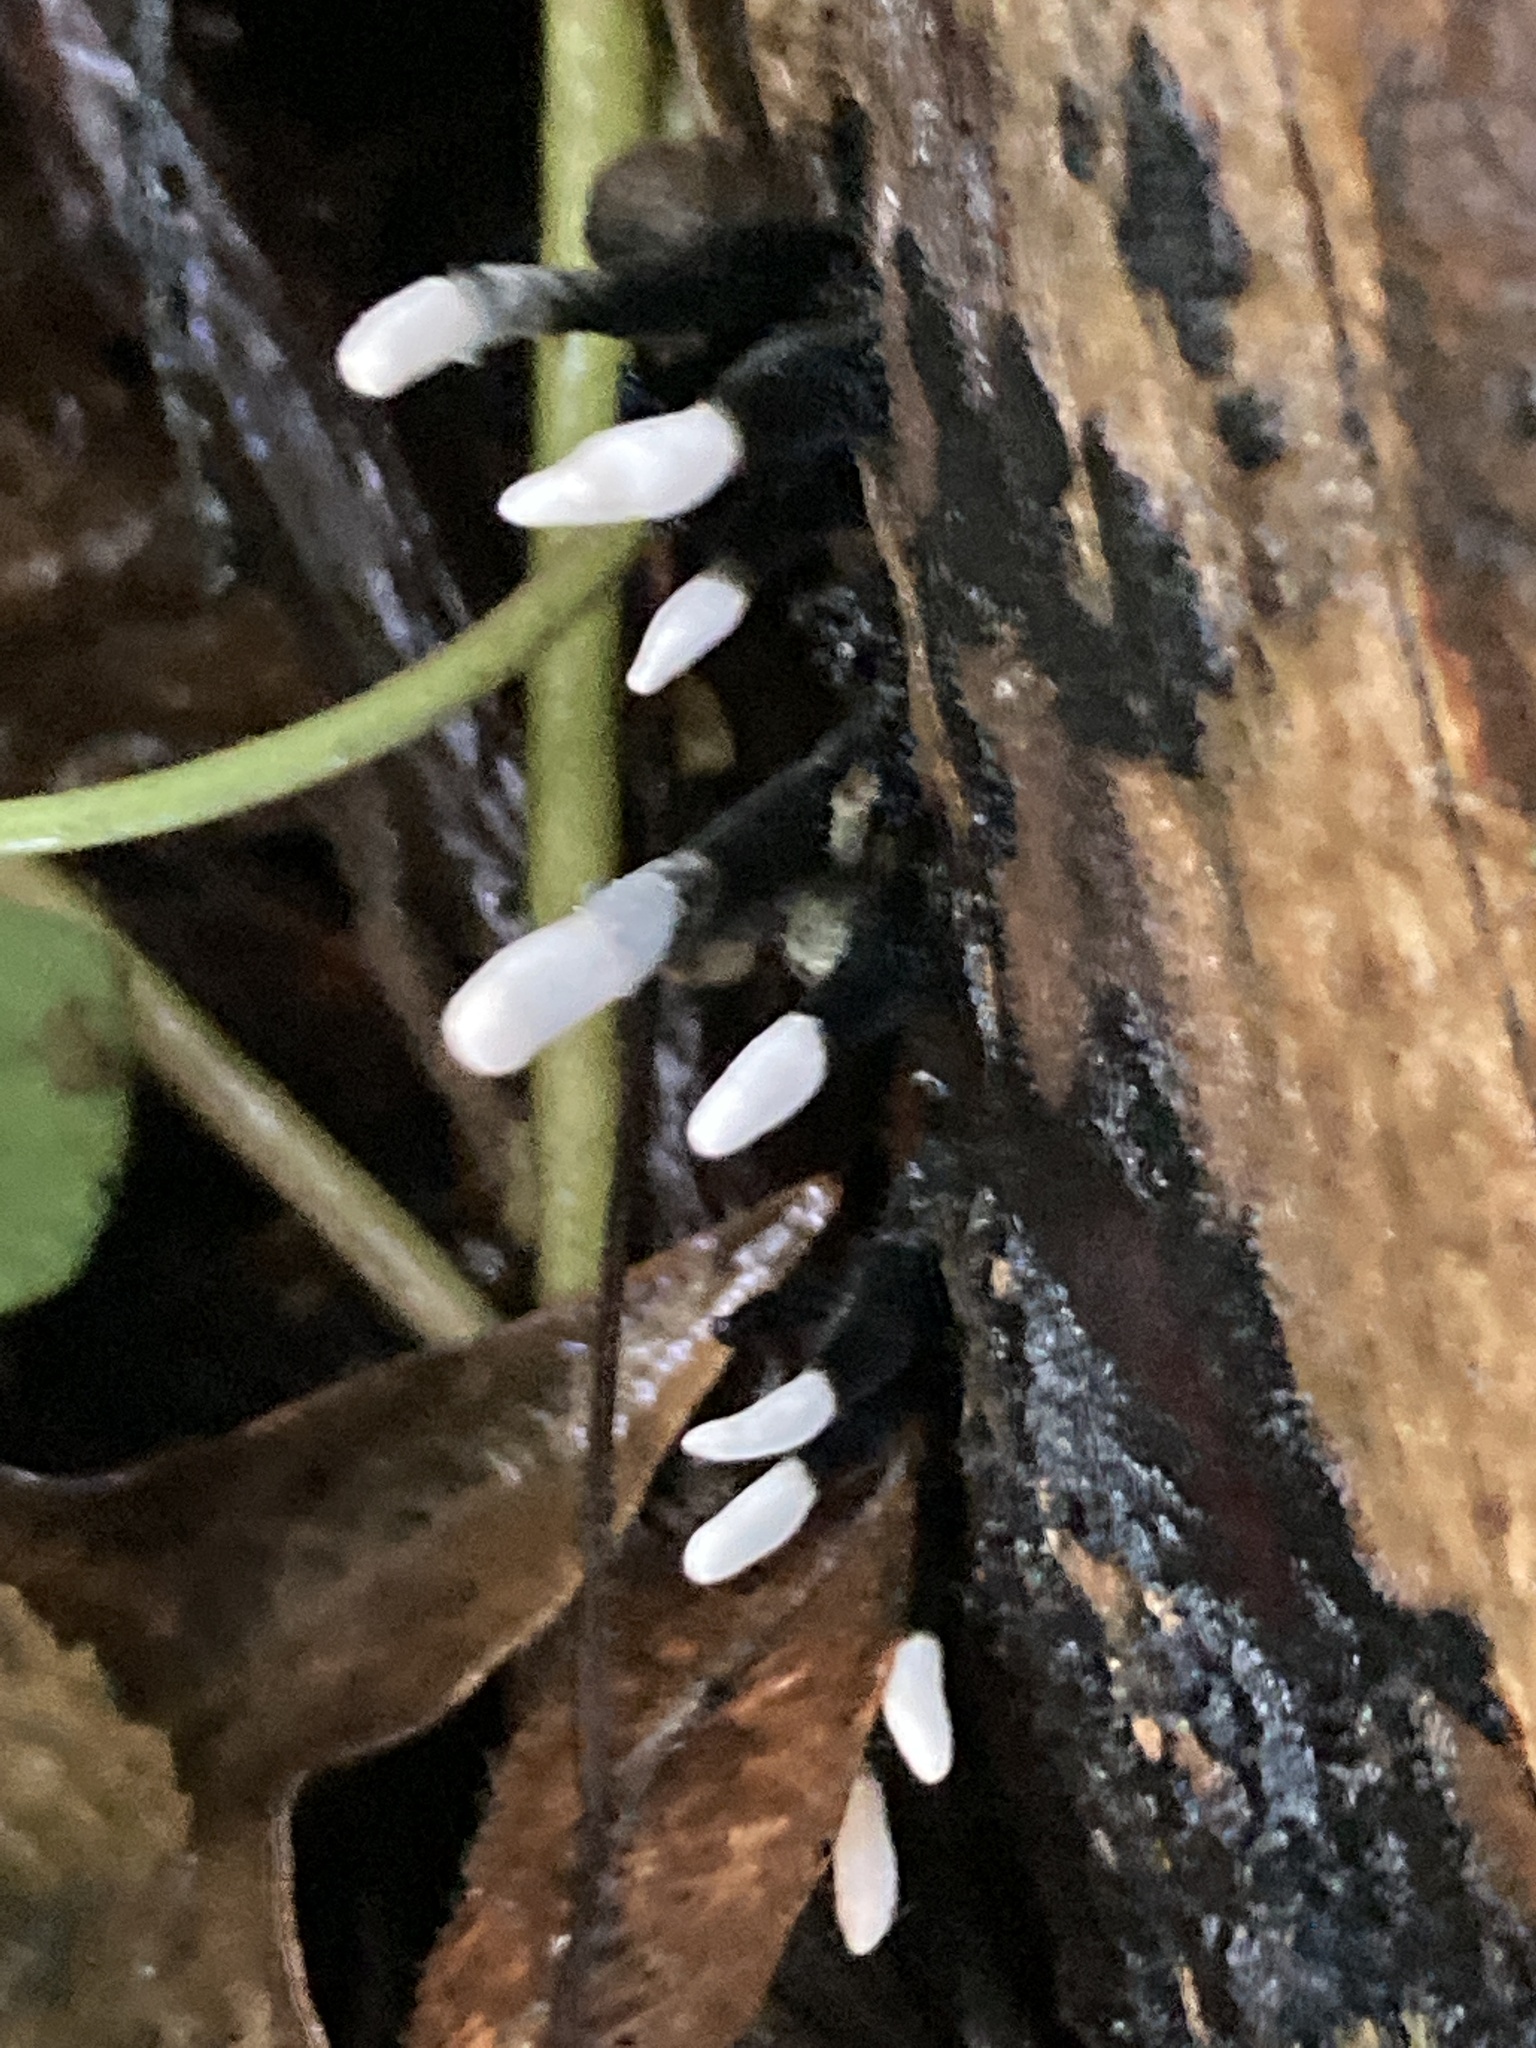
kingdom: Fungi
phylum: Ascomycota
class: Sordariomycetes
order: Xylariales
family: Xylariaceae
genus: Xylaria
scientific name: Xylaria hypoxylon
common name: Candle-snuff fungus
